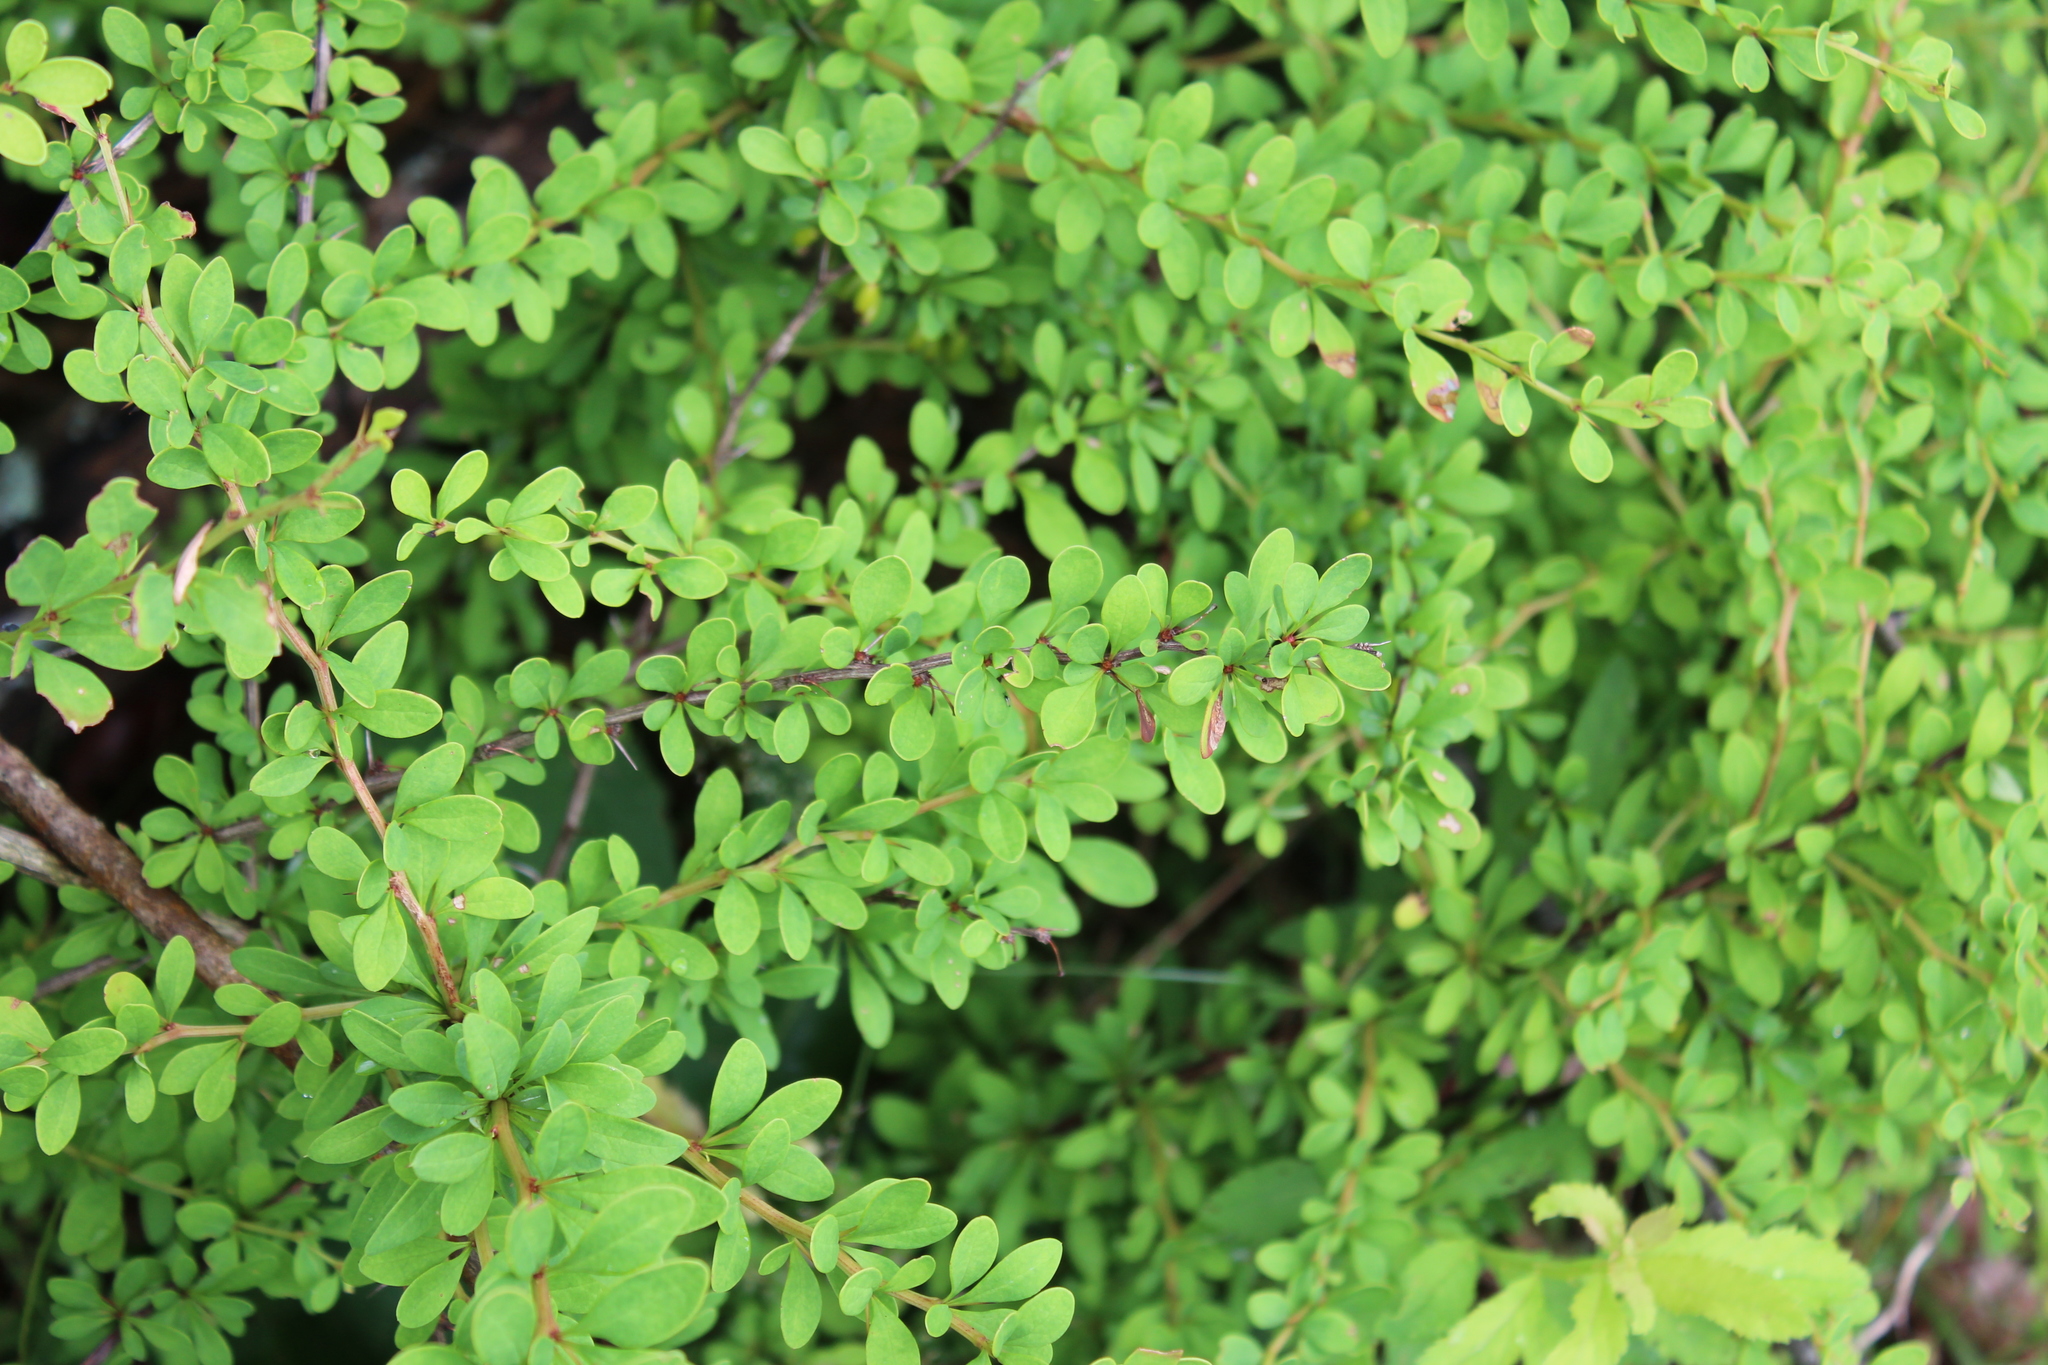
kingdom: Plantae
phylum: Tracheophyta
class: Magnoliopsida
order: Ranunculales
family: Berberidaceae
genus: Berberis
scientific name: Berberis thunbergii
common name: Japanese barberry
